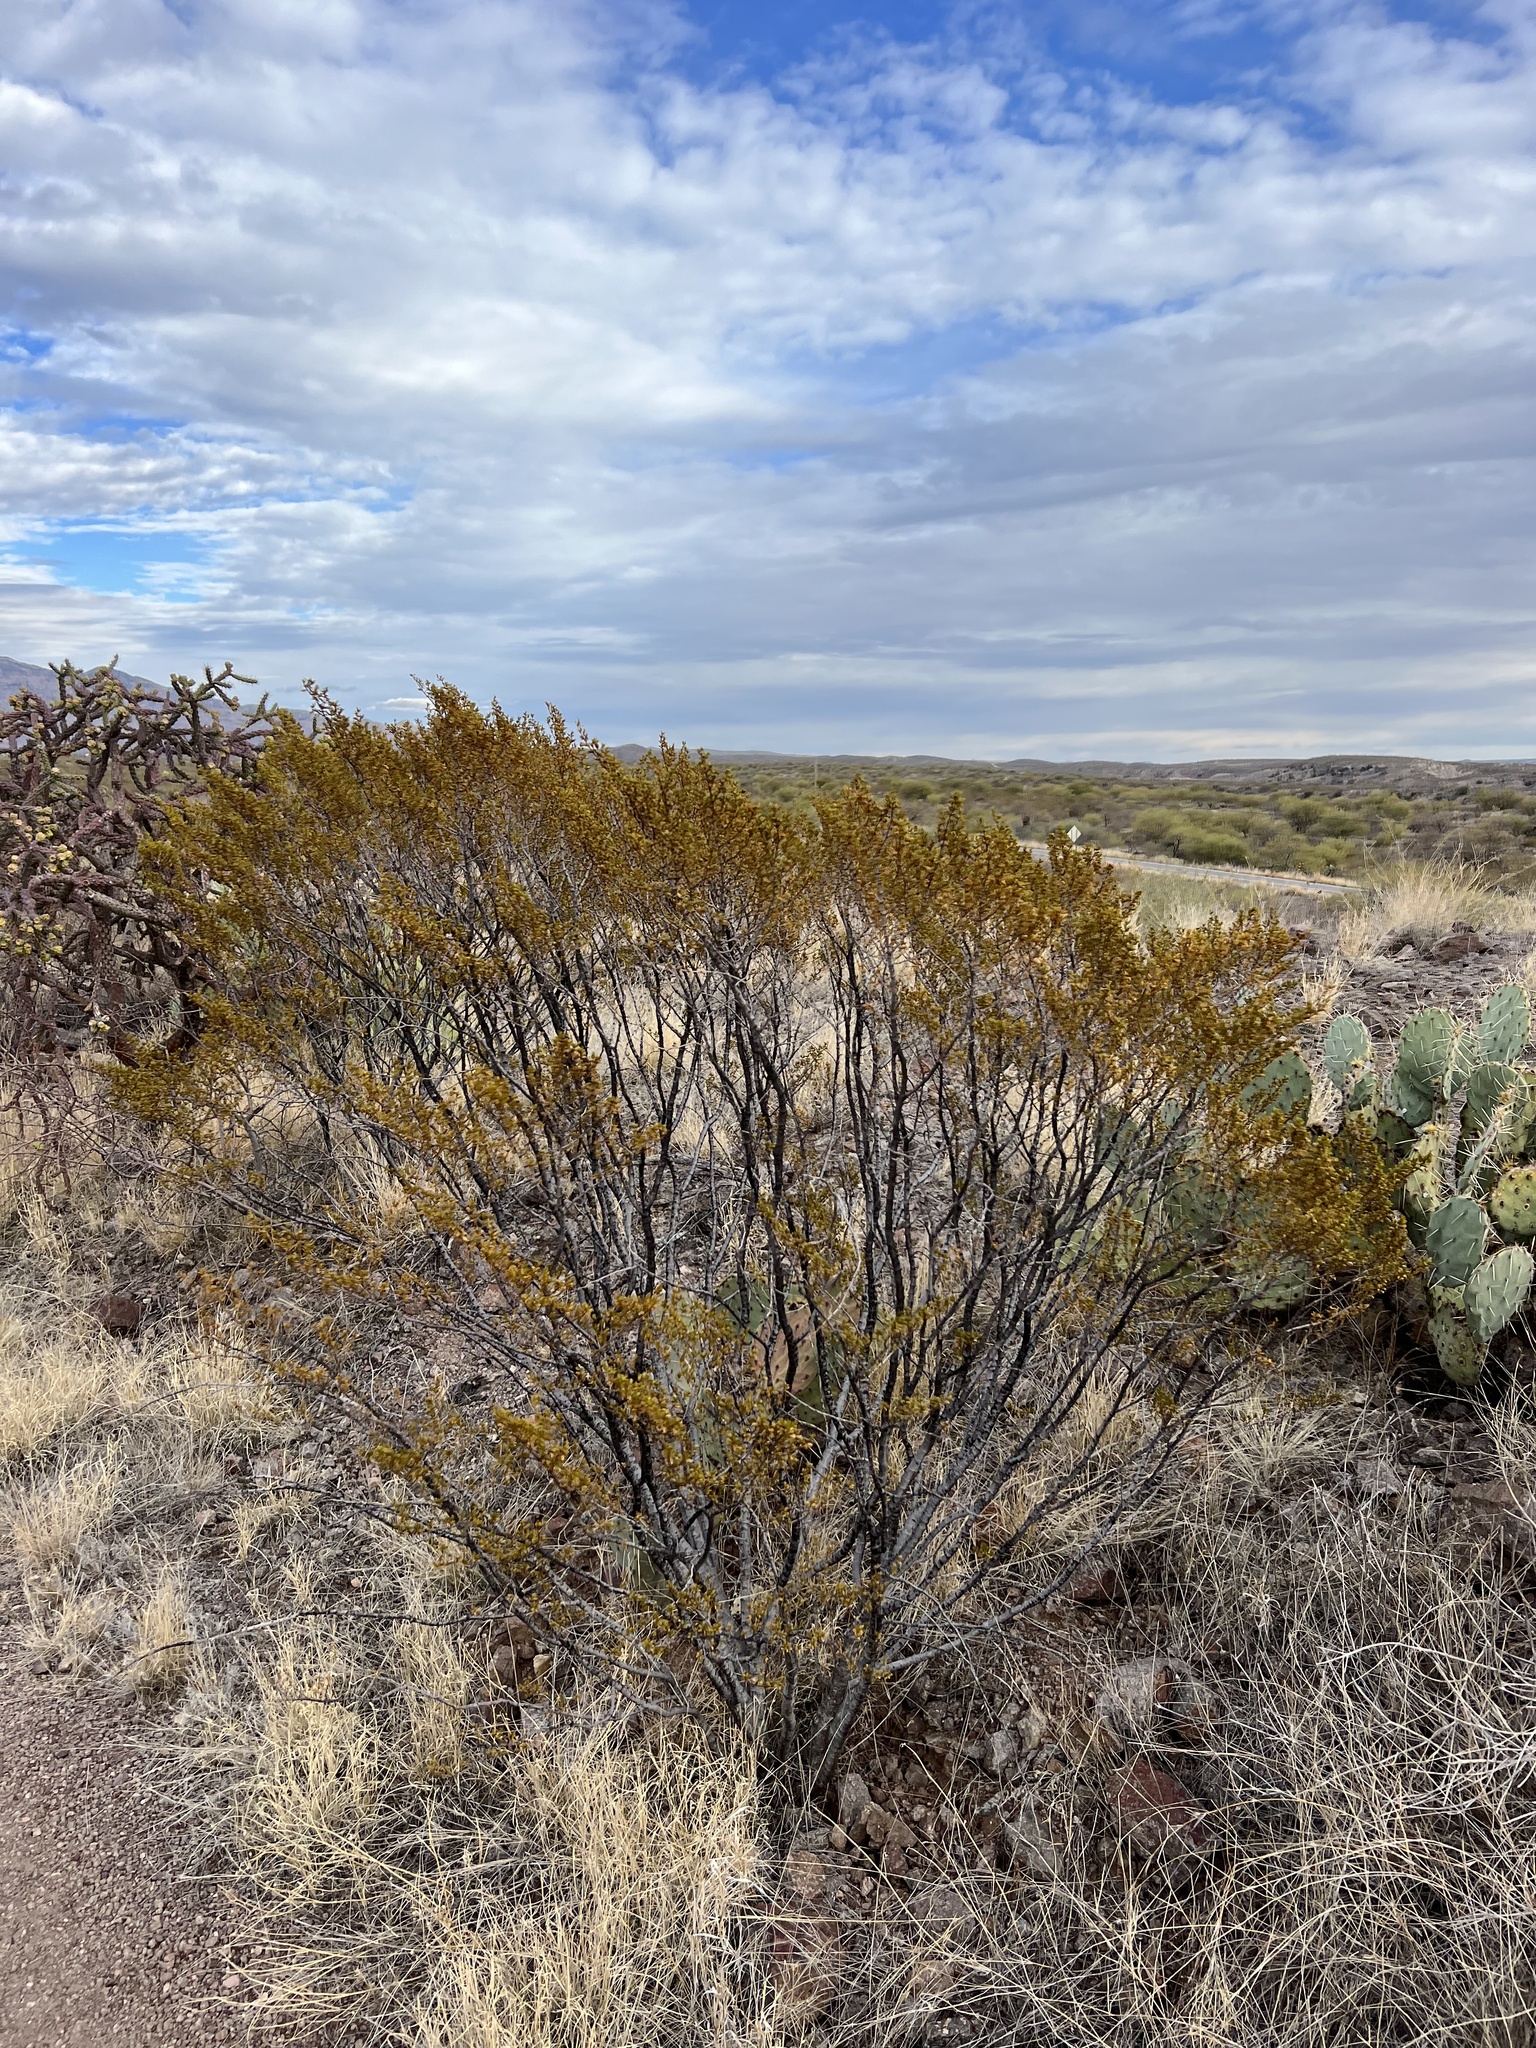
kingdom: Plantae
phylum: Tracheophyta
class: Magnoliopsida
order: Zygophyllales
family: Zygophyllaceae
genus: Larrea
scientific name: Larrea tridentata
